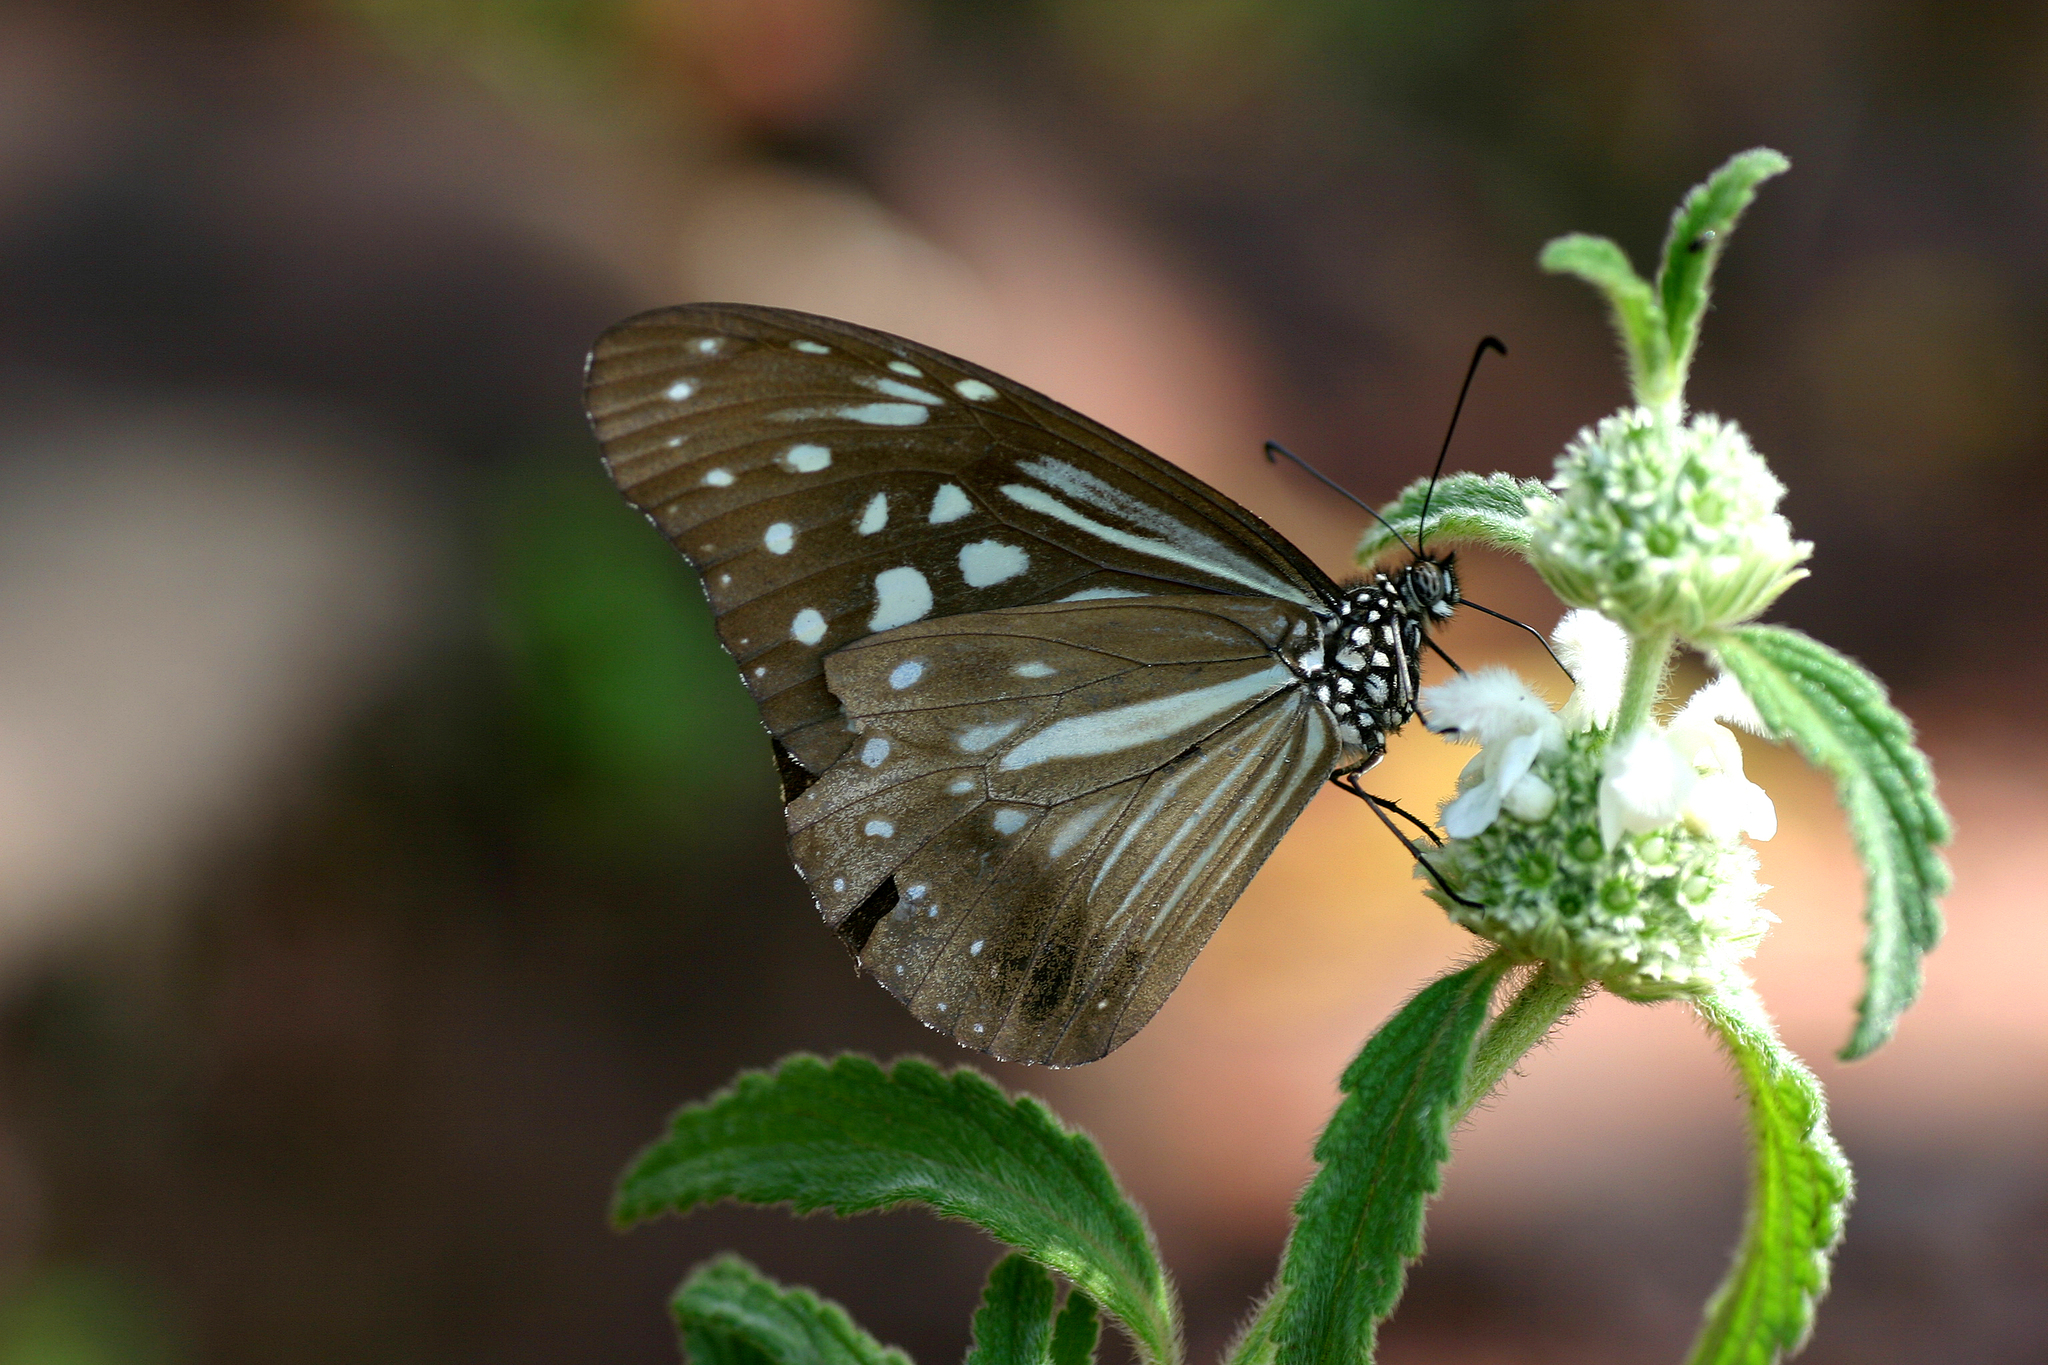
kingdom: Animalia
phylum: Arthropoda
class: Insecta
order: Lepidoptera
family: Nymphalidae
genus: Parantica
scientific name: Parantica nilgiriensis
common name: Nilgiri tiger
